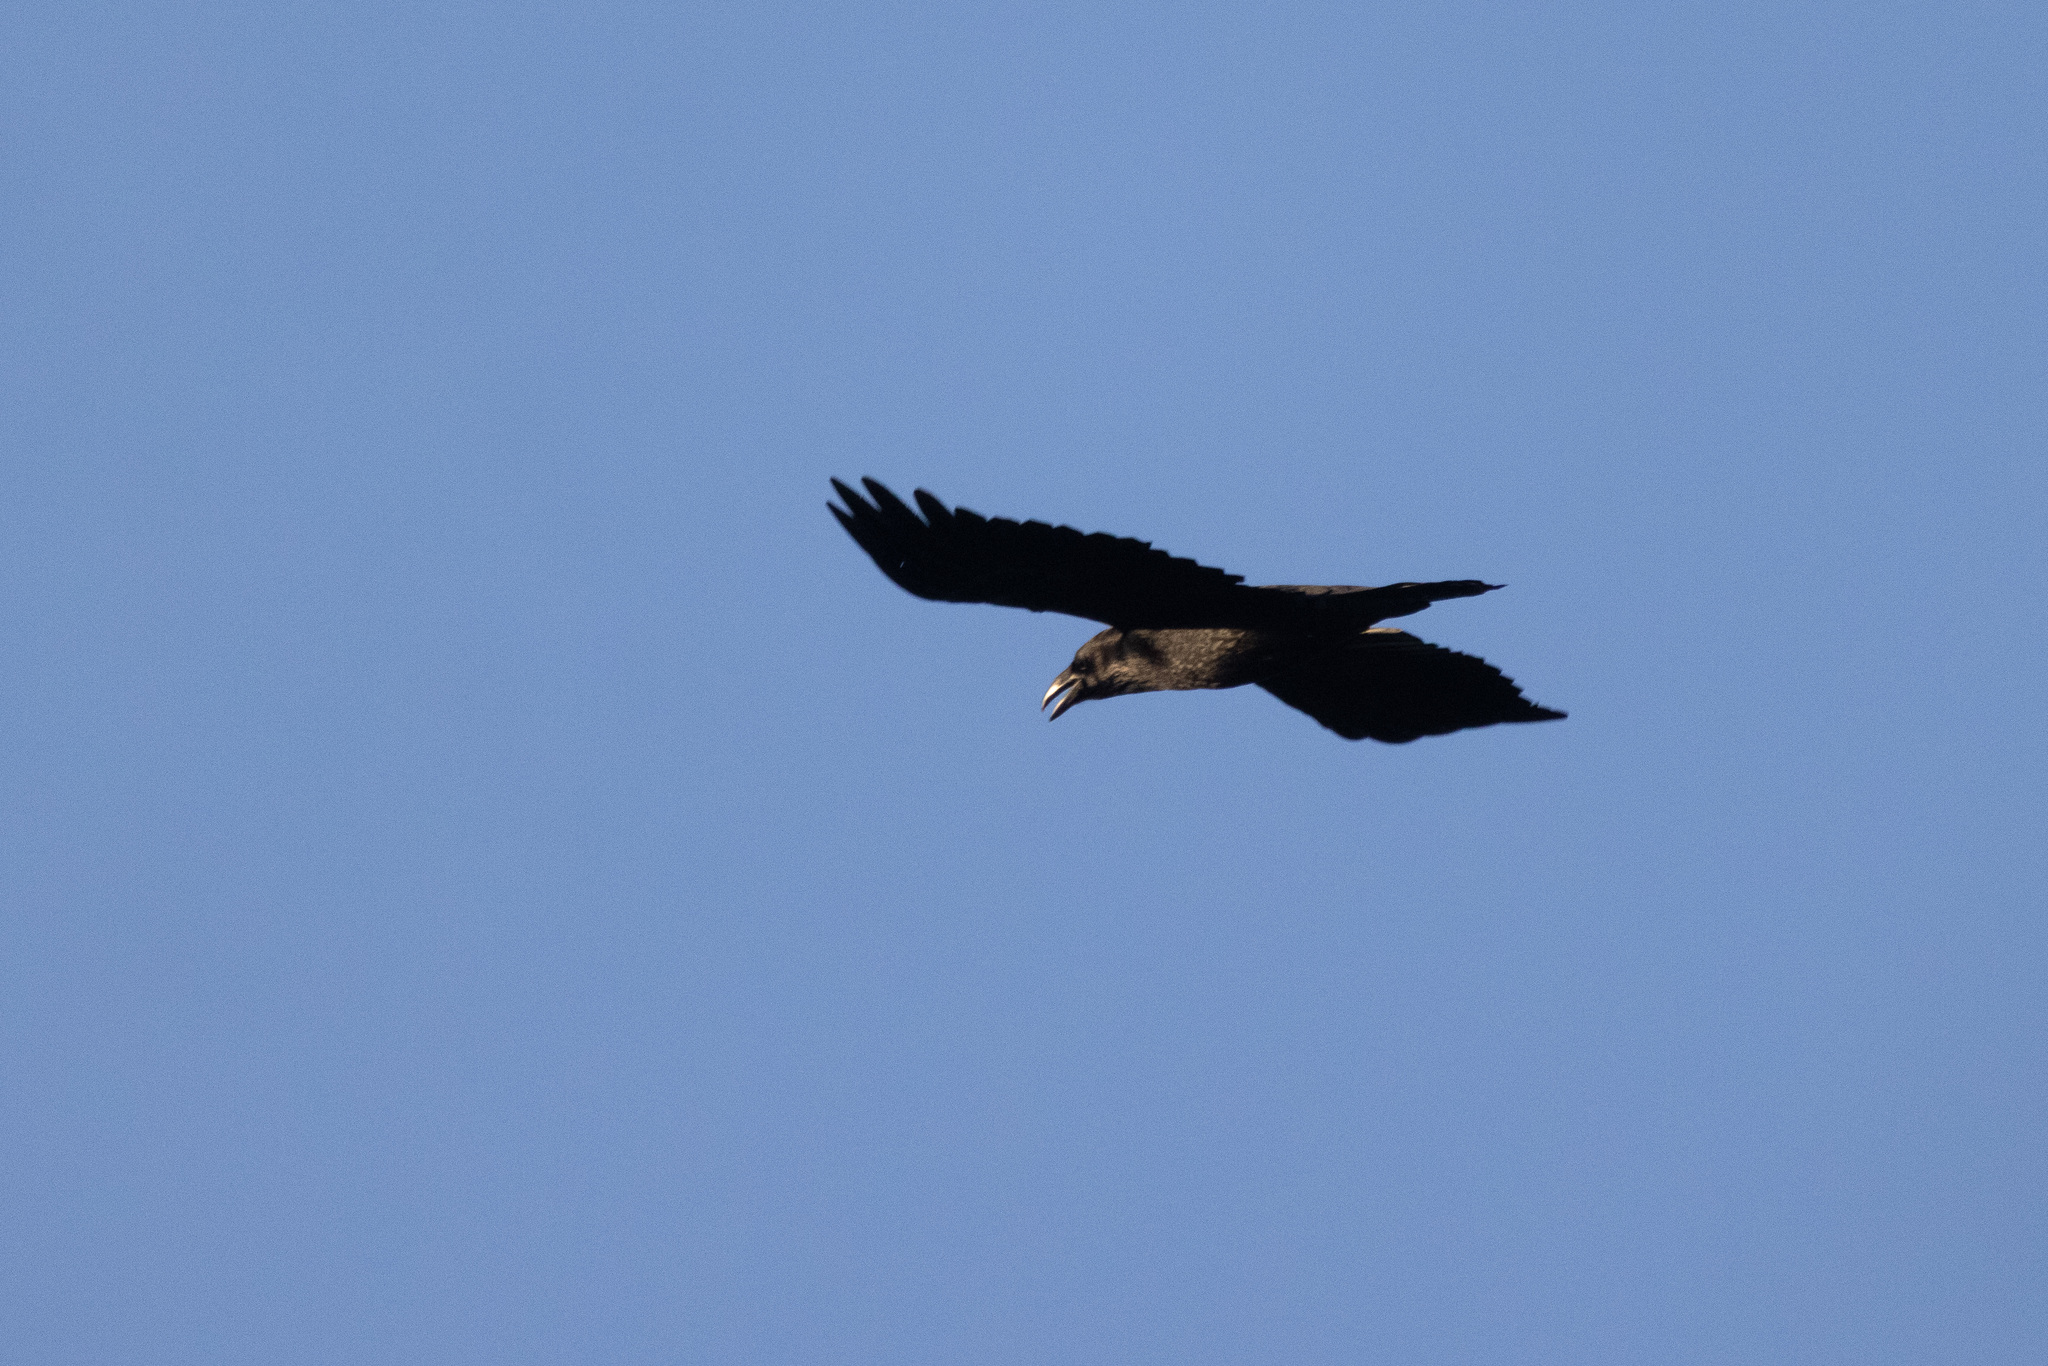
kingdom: Animalia
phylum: Chordata
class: Aves
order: Passeriformes
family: Corvidae
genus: Corvus
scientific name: Corvus corax
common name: Common raven
